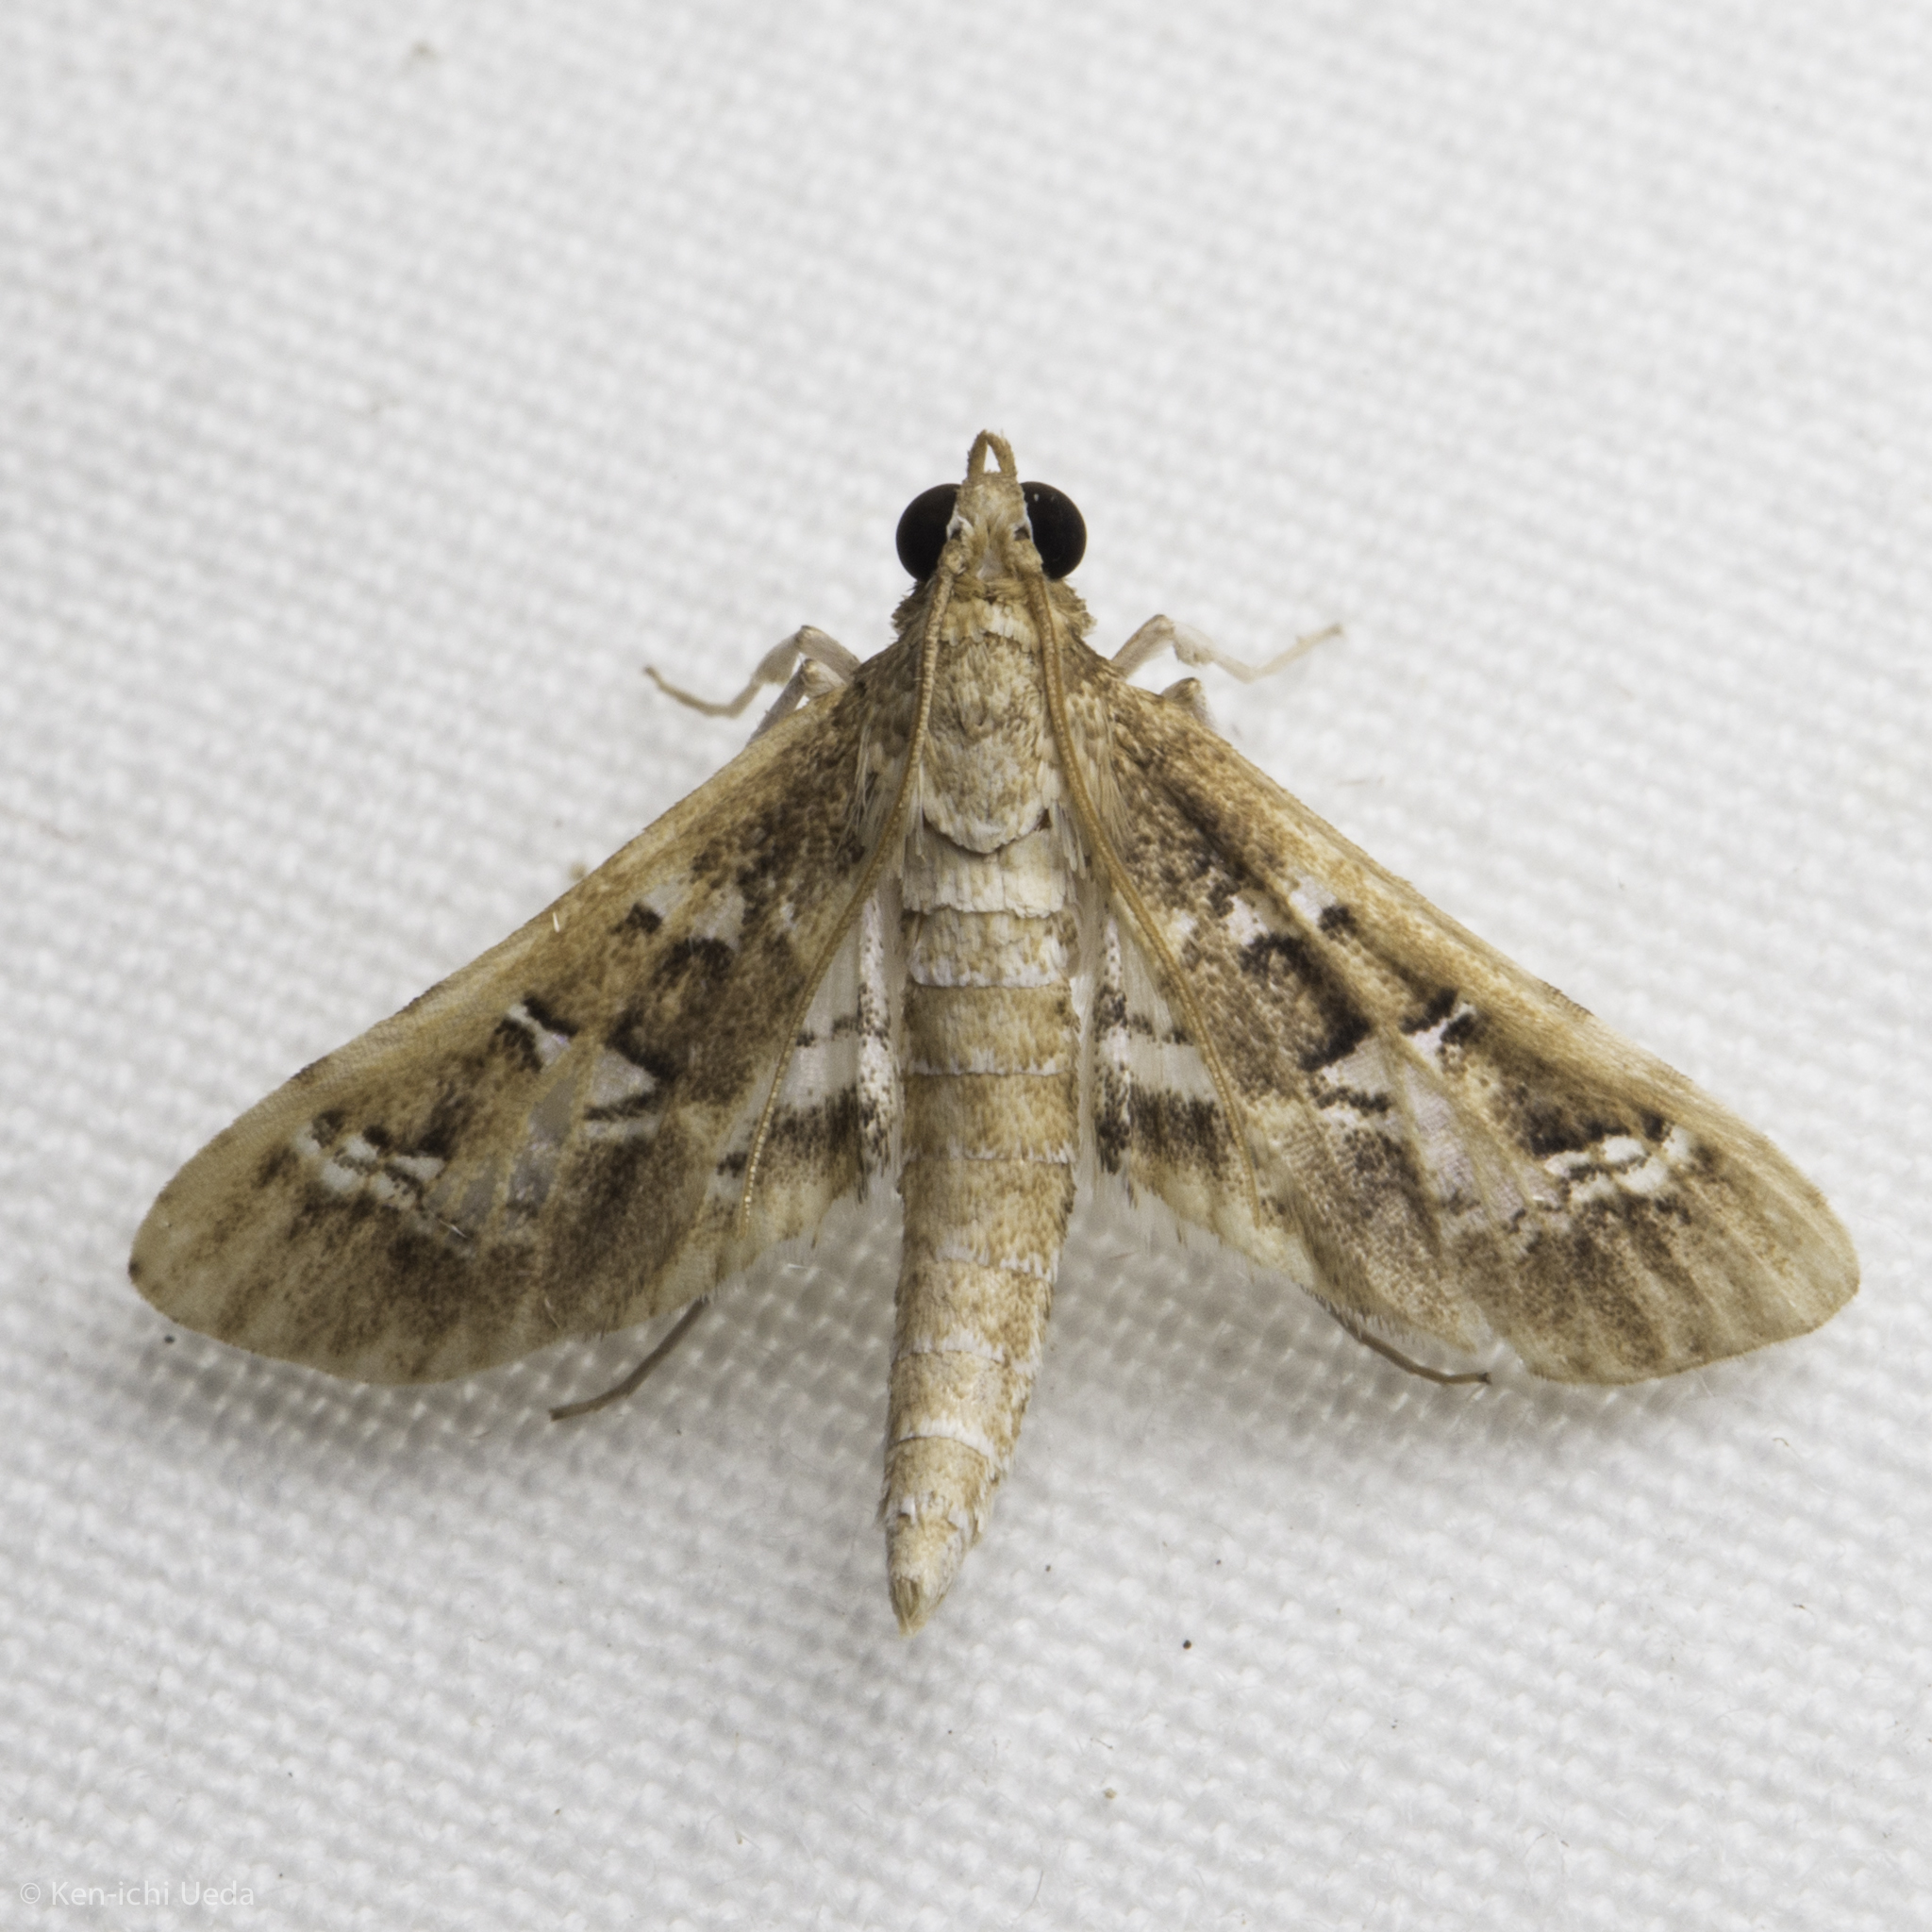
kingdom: Animalia
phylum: Arthropoda
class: Insecta
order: Lepidoptera
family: Crambidae
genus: Syllepte
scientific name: Syllepte Crocidocnemis pellucidalis
